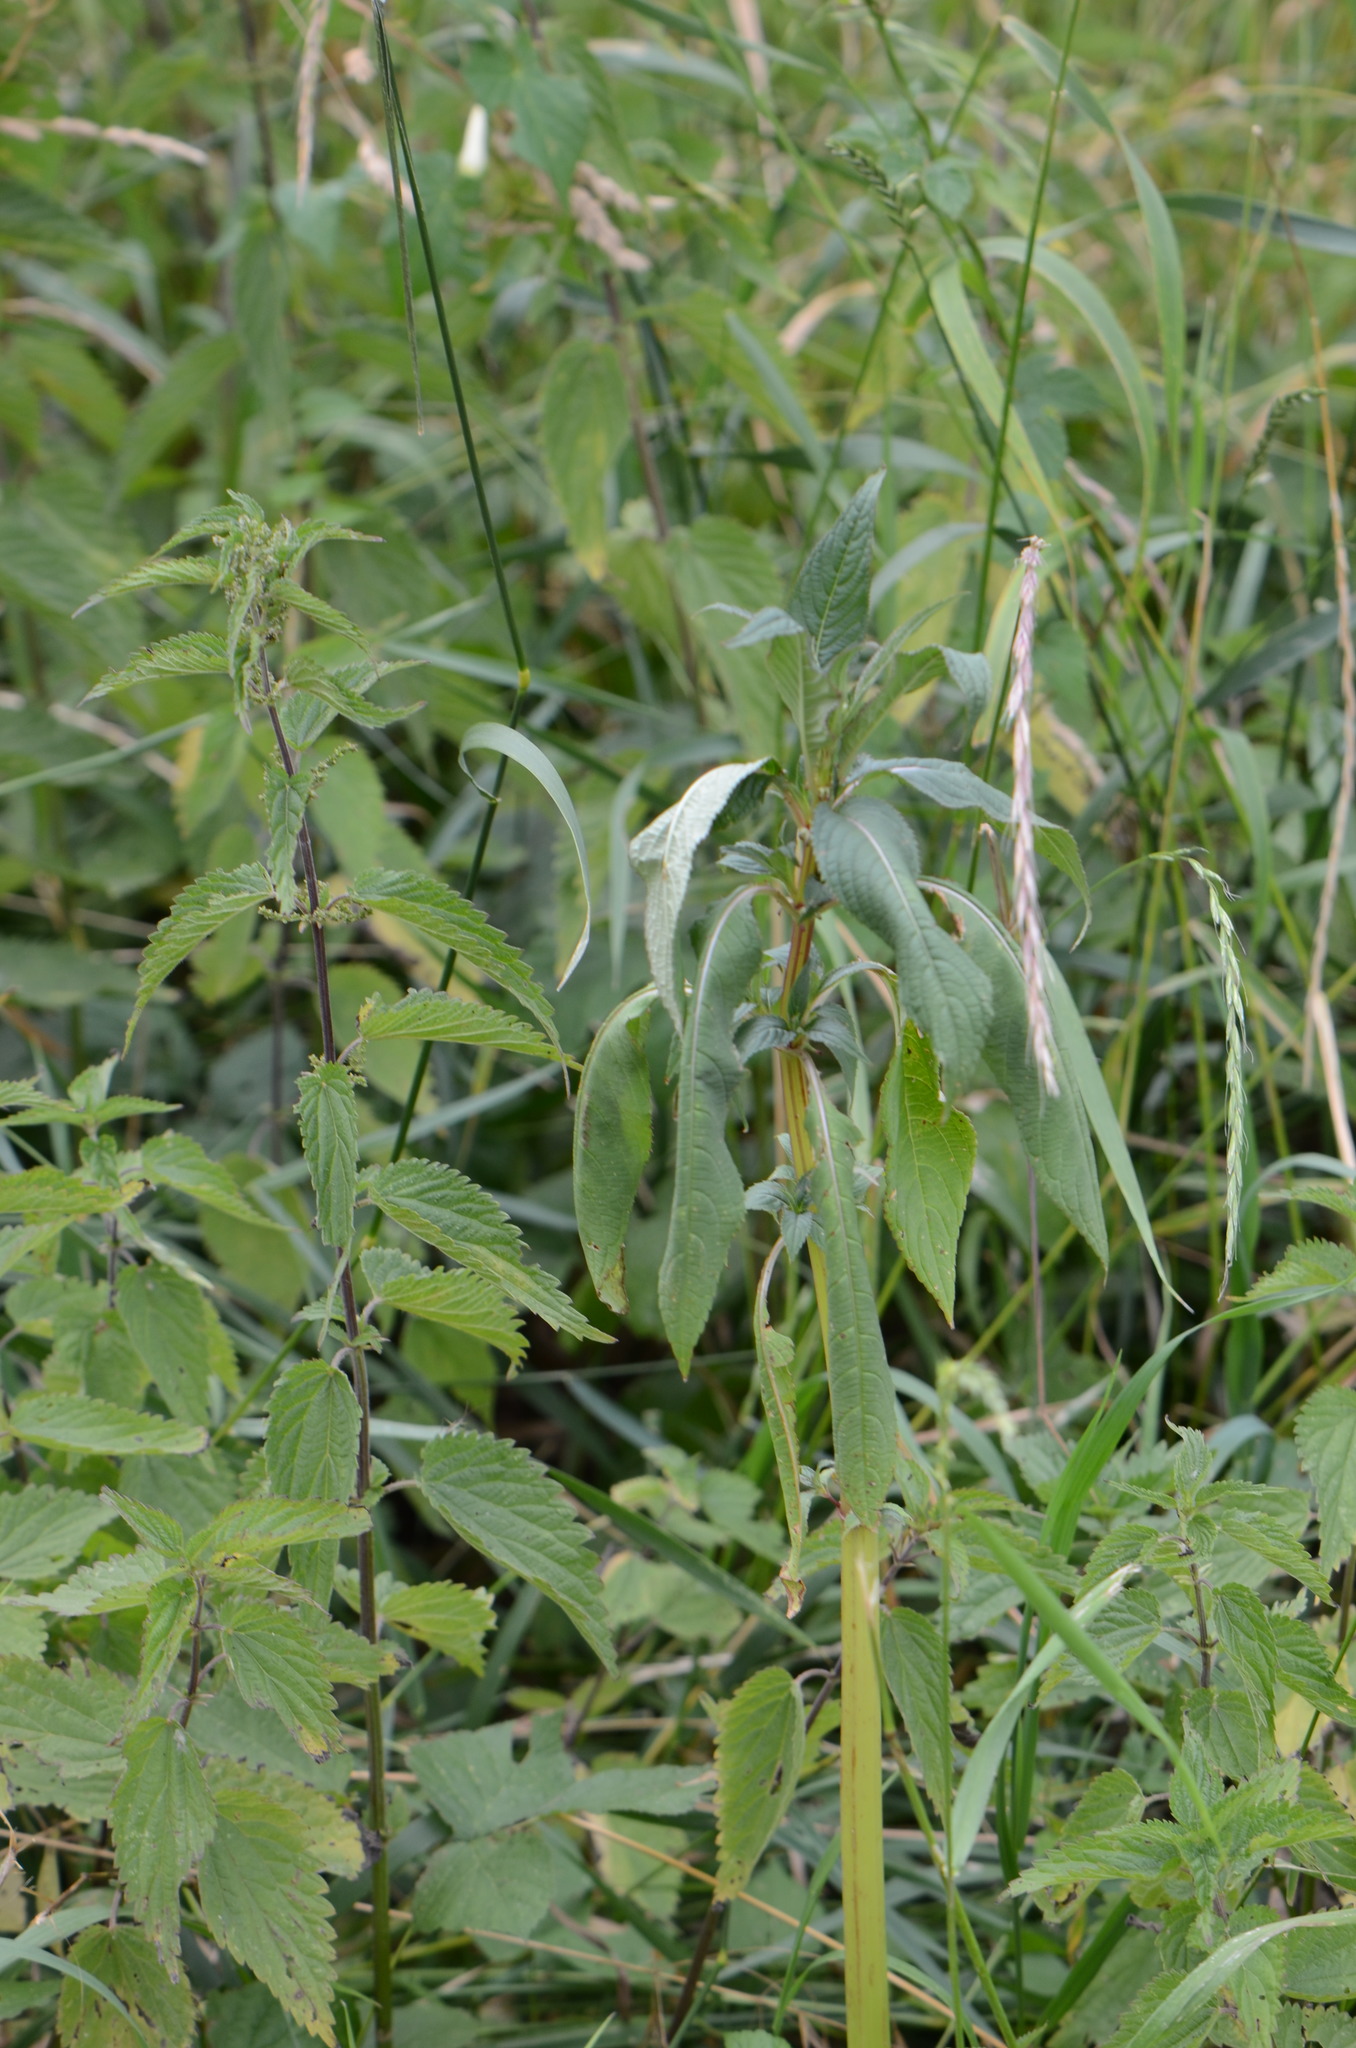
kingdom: Plantae
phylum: Tracheophyta
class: Magnoliopsida
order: Ericales
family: Balsaminaceae
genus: Impatiens
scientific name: Impatiens glandulifera
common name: Himalayan balsam
